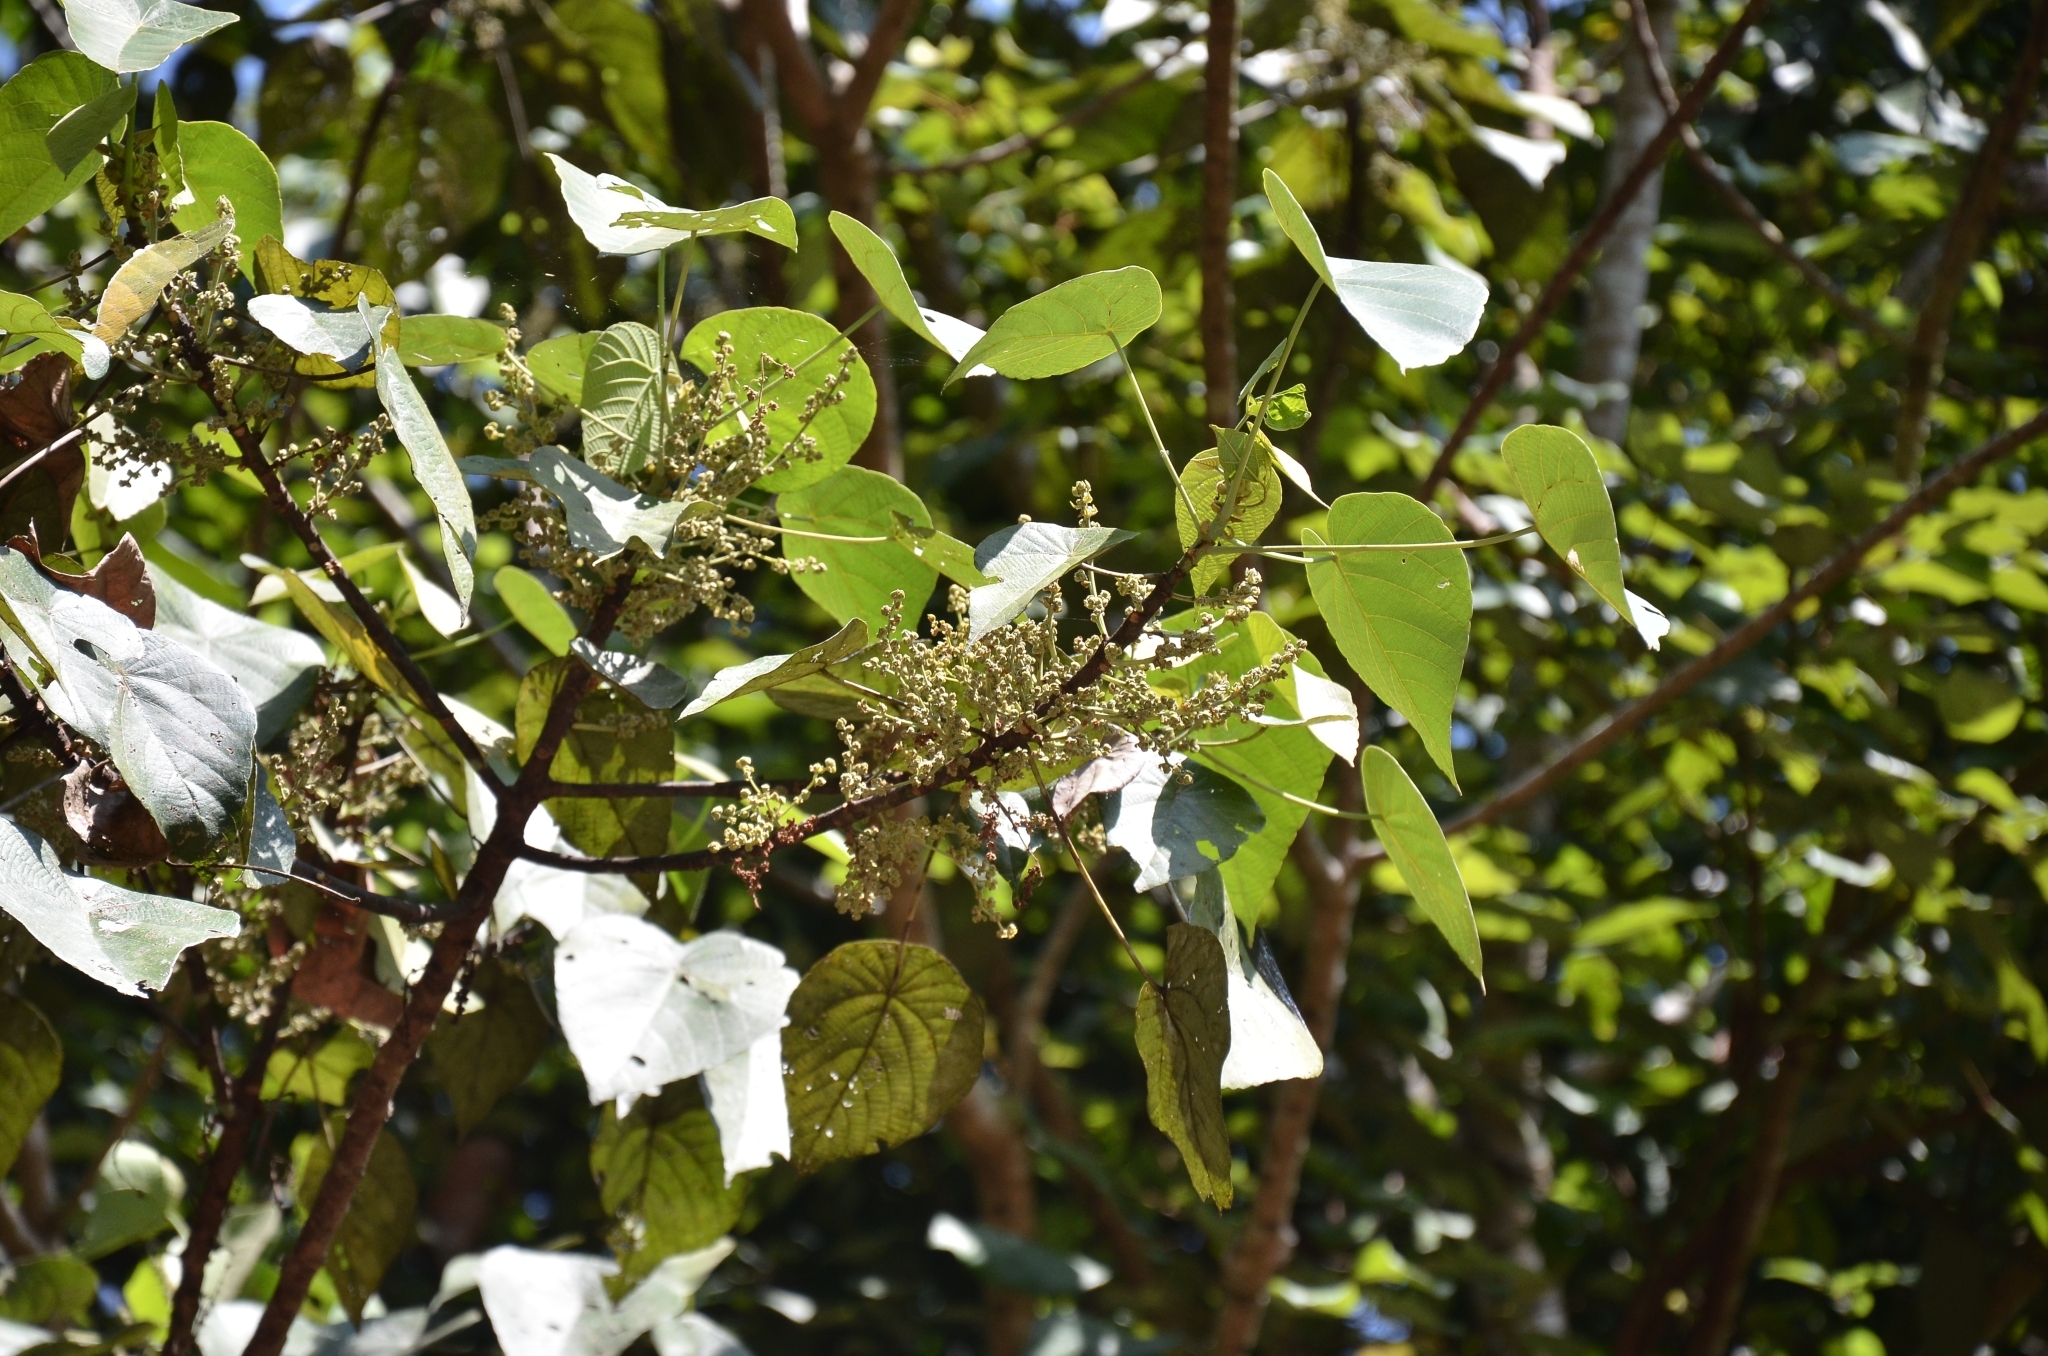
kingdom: Plantae
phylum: Tracheophyta
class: Magnoliopsida
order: Malpighiales
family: Euphorbiaceae
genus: Macaranga
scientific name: Macaranga peltata
